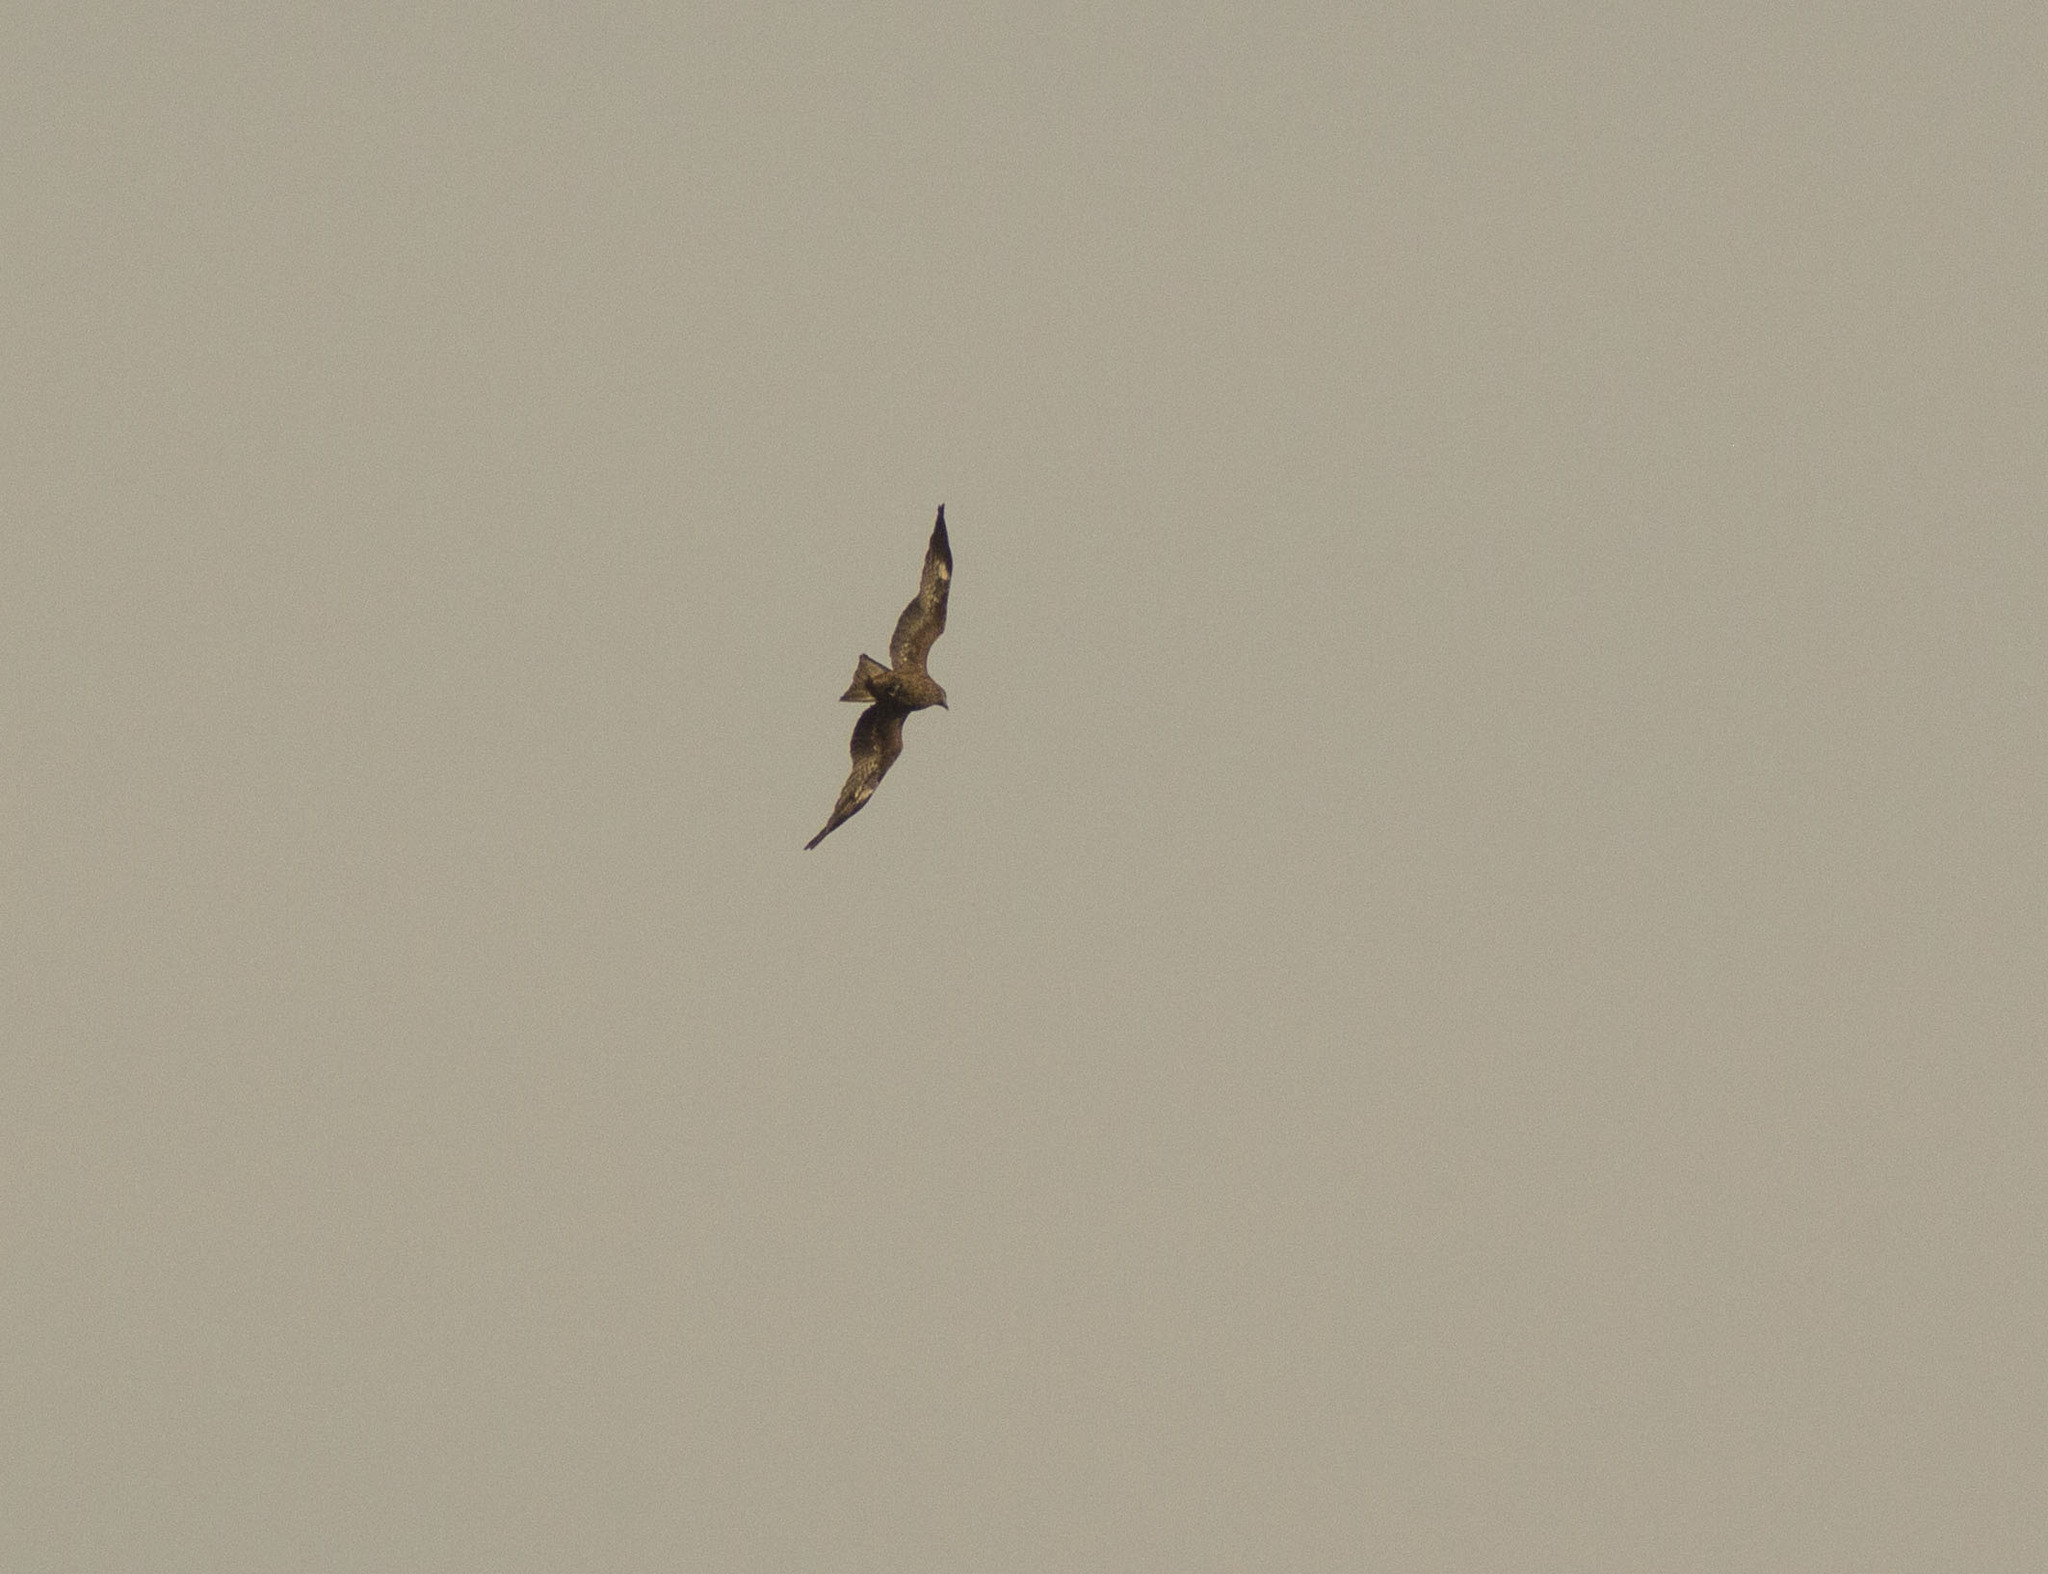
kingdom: Animalia
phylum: Chordata
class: Aves
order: Accipitriformes
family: Accipitridae
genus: Milvus
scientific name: Milvus migrans
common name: Black kite
